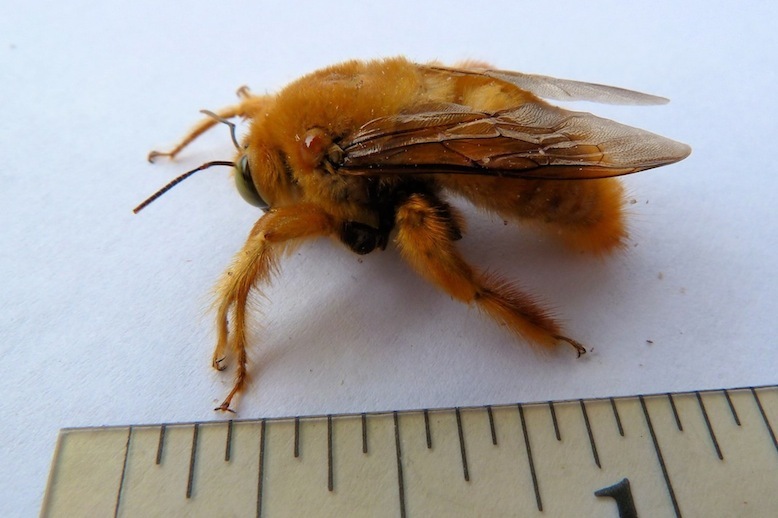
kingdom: Animalia
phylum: Arthropoda
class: Insecta
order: Hymenoptera
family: Apidae
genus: Xylocopa
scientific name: Xylocopa sonorina
